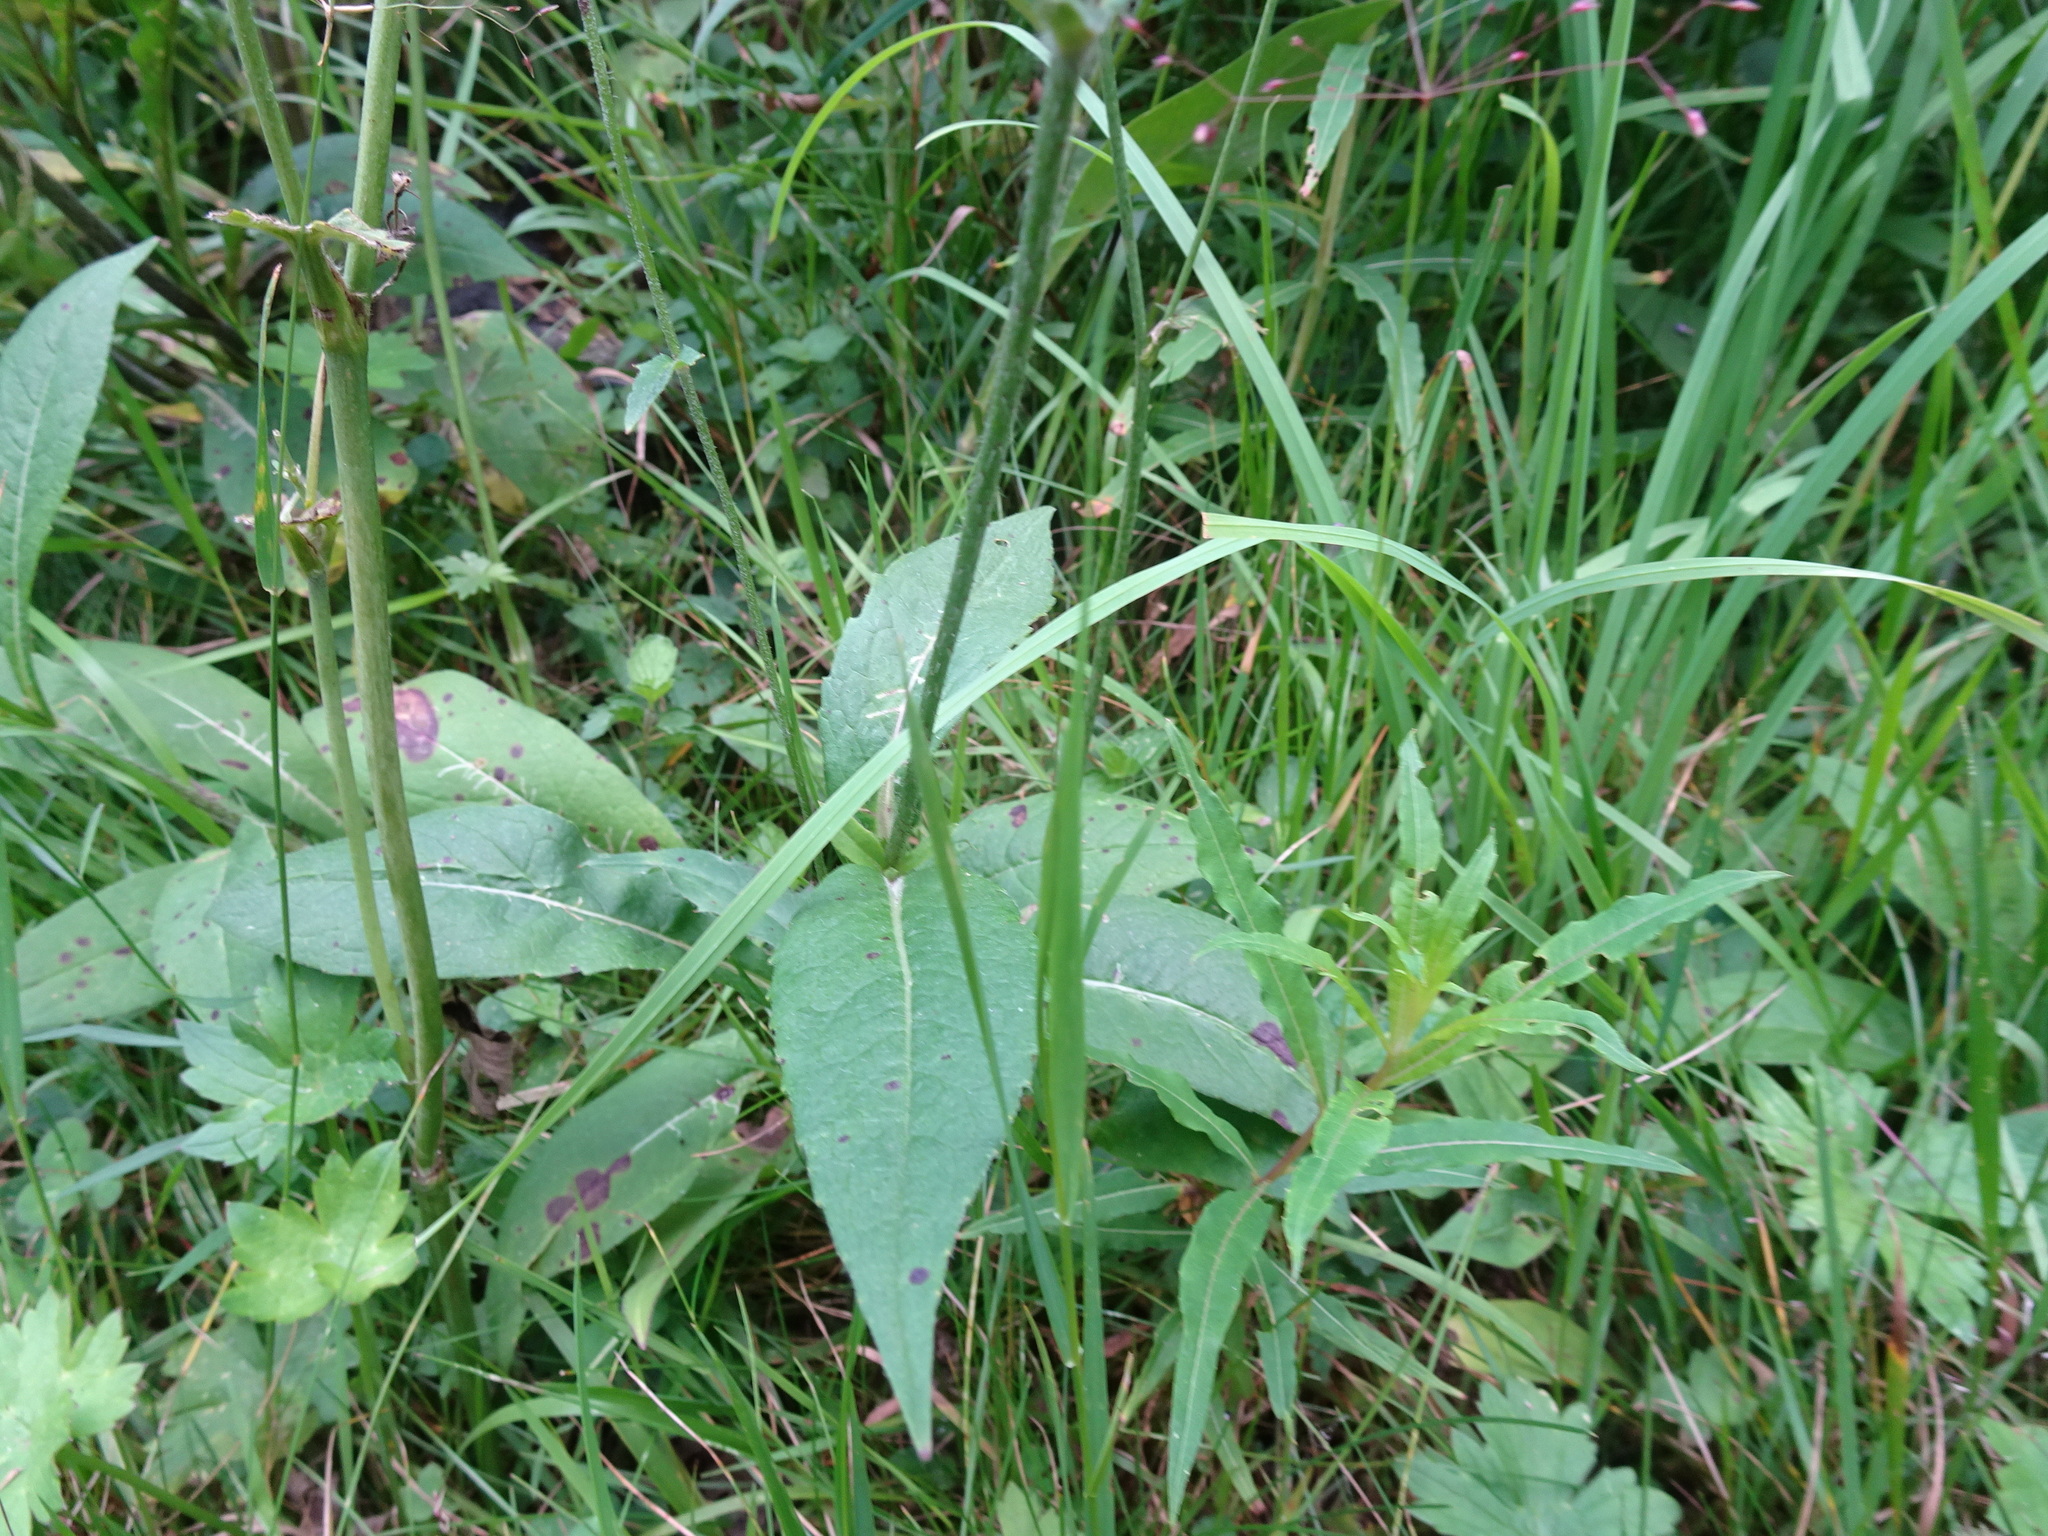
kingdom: Plantae
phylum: Tracheophyta
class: Magnoliopsida
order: Dipsacales
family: Caprifoliaceae
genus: Knautia
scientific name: Knautia dipsacifolia
